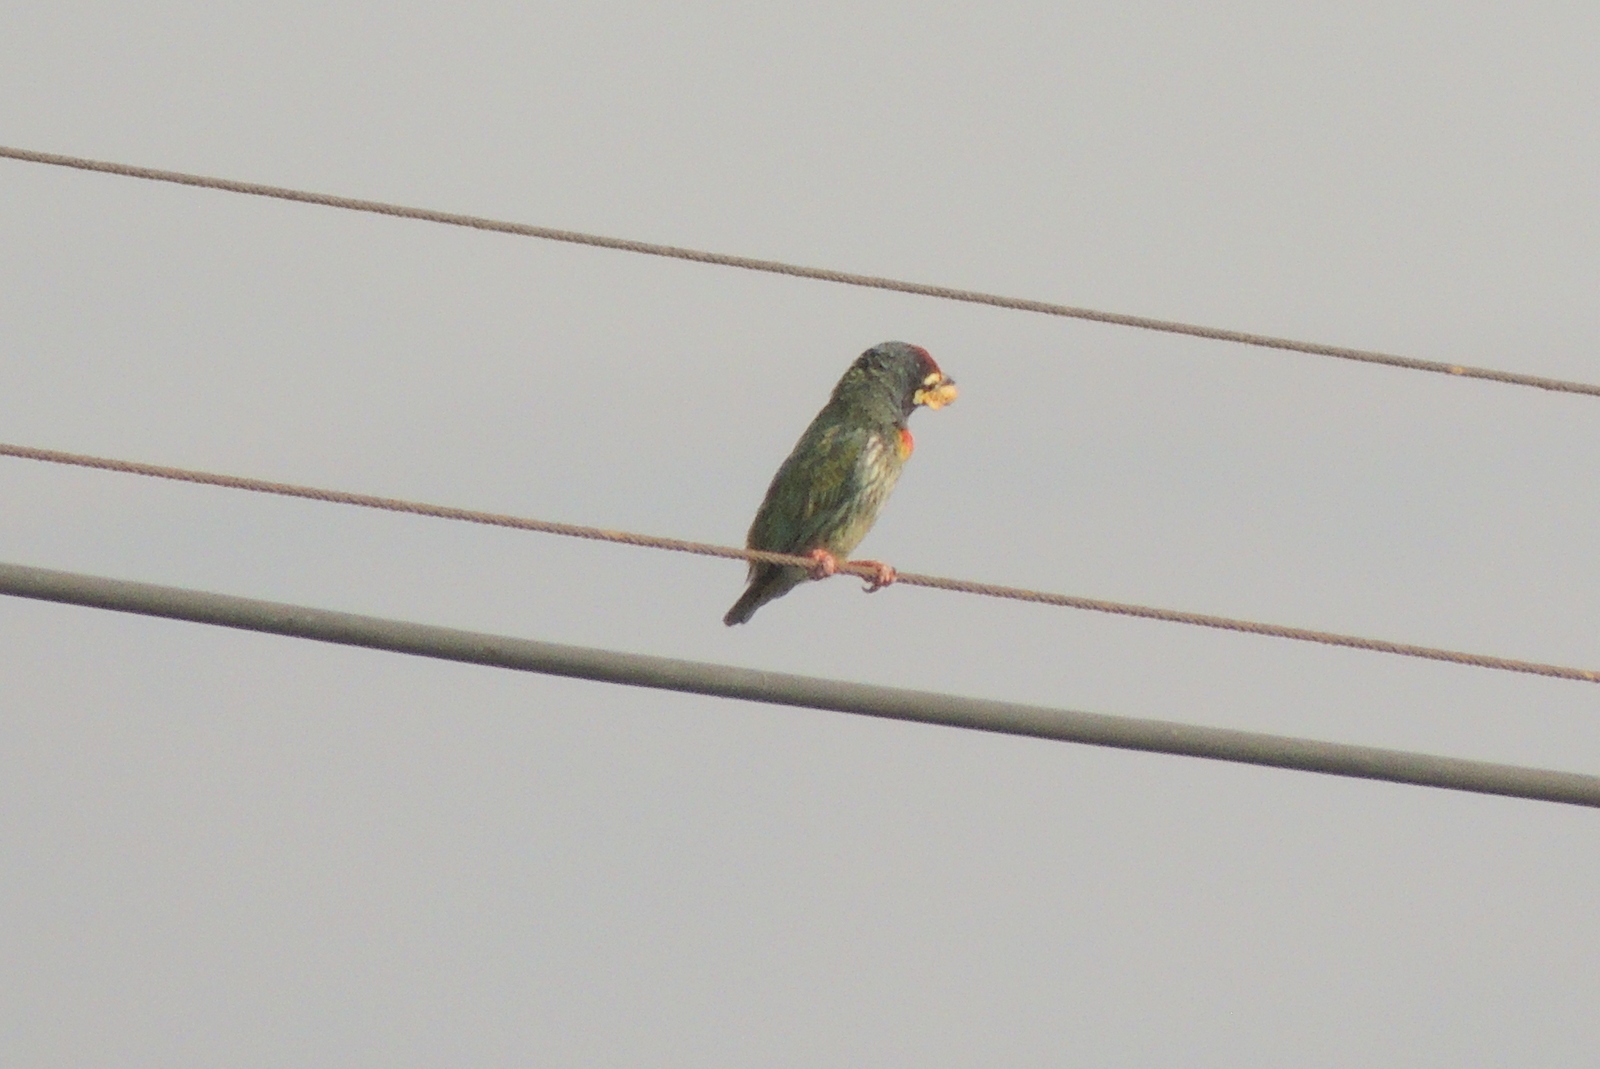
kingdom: Animalia
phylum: Chordata
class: Aves
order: Piciformes
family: Megalaimidae
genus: Psilopogon
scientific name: Psilopogon haemacephalus
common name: Coppersmith barbet
